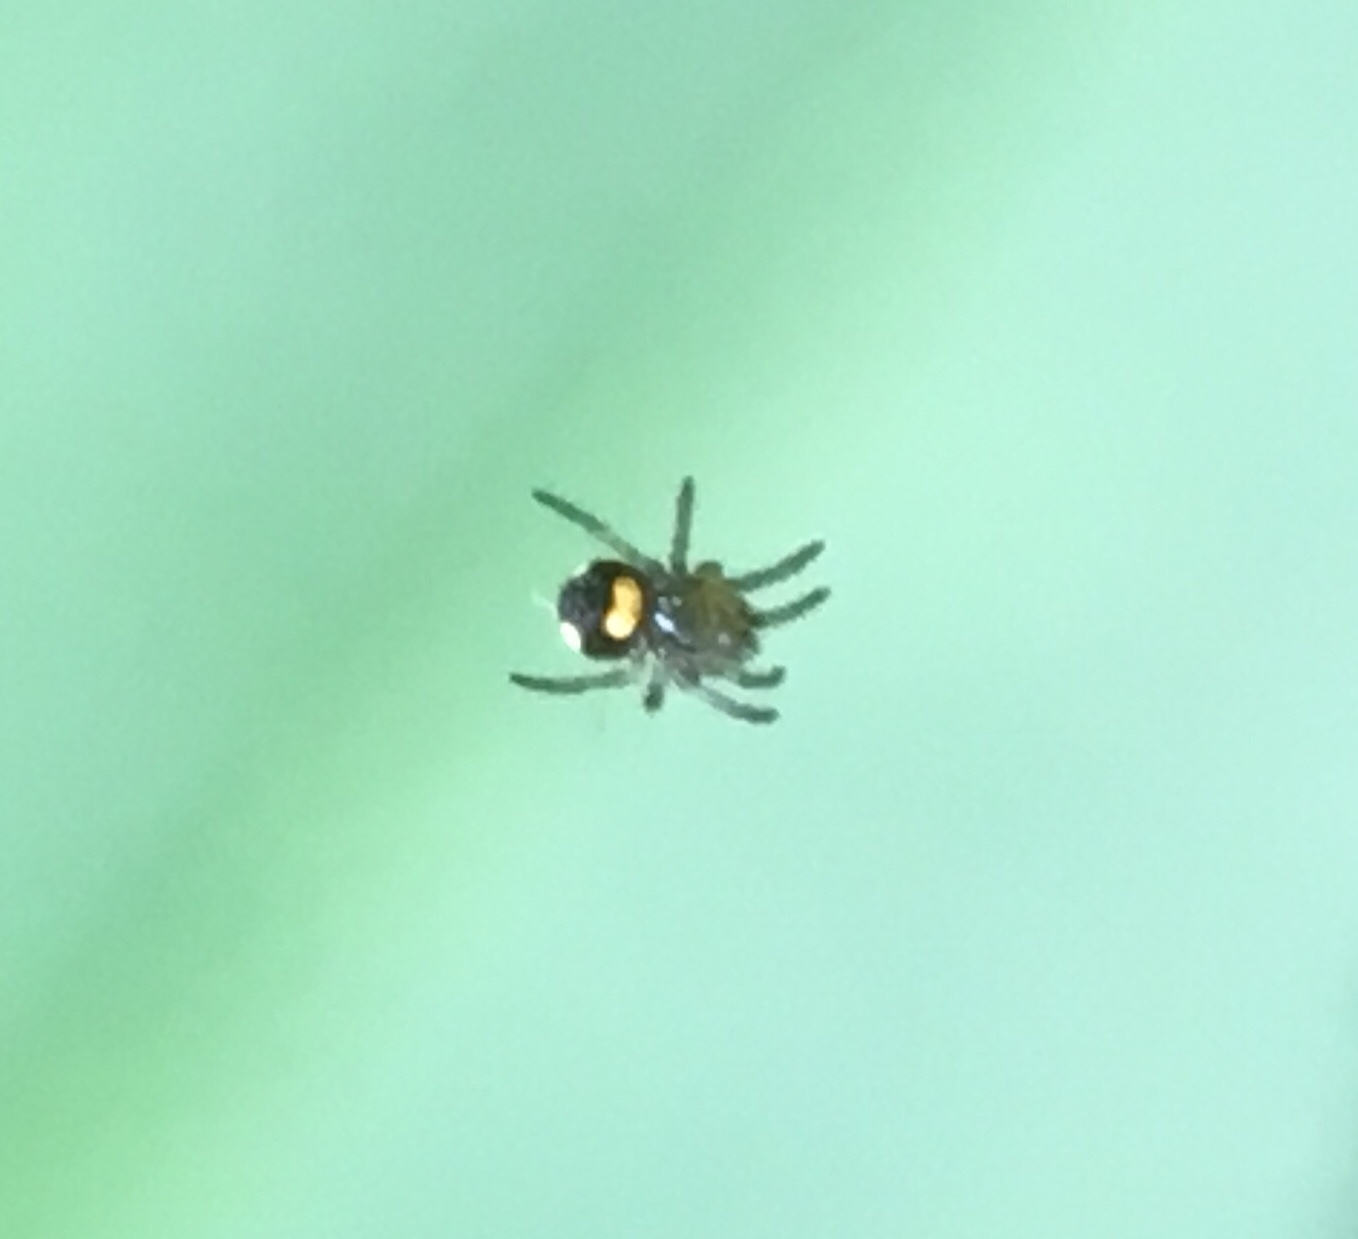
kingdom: Animalia
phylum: Arthropoda
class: Arachnida
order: Araneae
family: Tetragnathidae
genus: Leucauge
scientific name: Leucauge venusta
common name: Longjawed orb weavers
